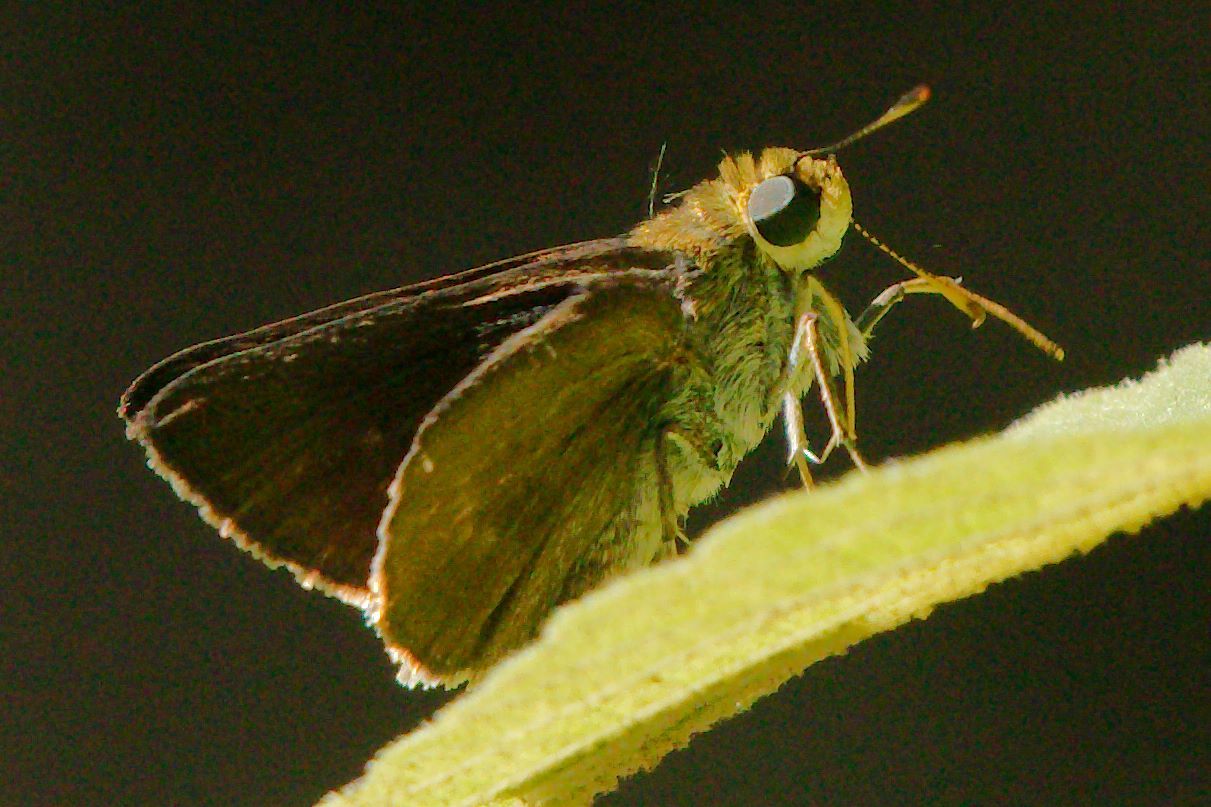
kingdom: Animalia
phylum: Arthropoda
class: Insecta
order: Lepidoptera
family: Hesperiidae
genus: Euphyes
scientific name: Euphyes vestris
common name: Dun skipper
